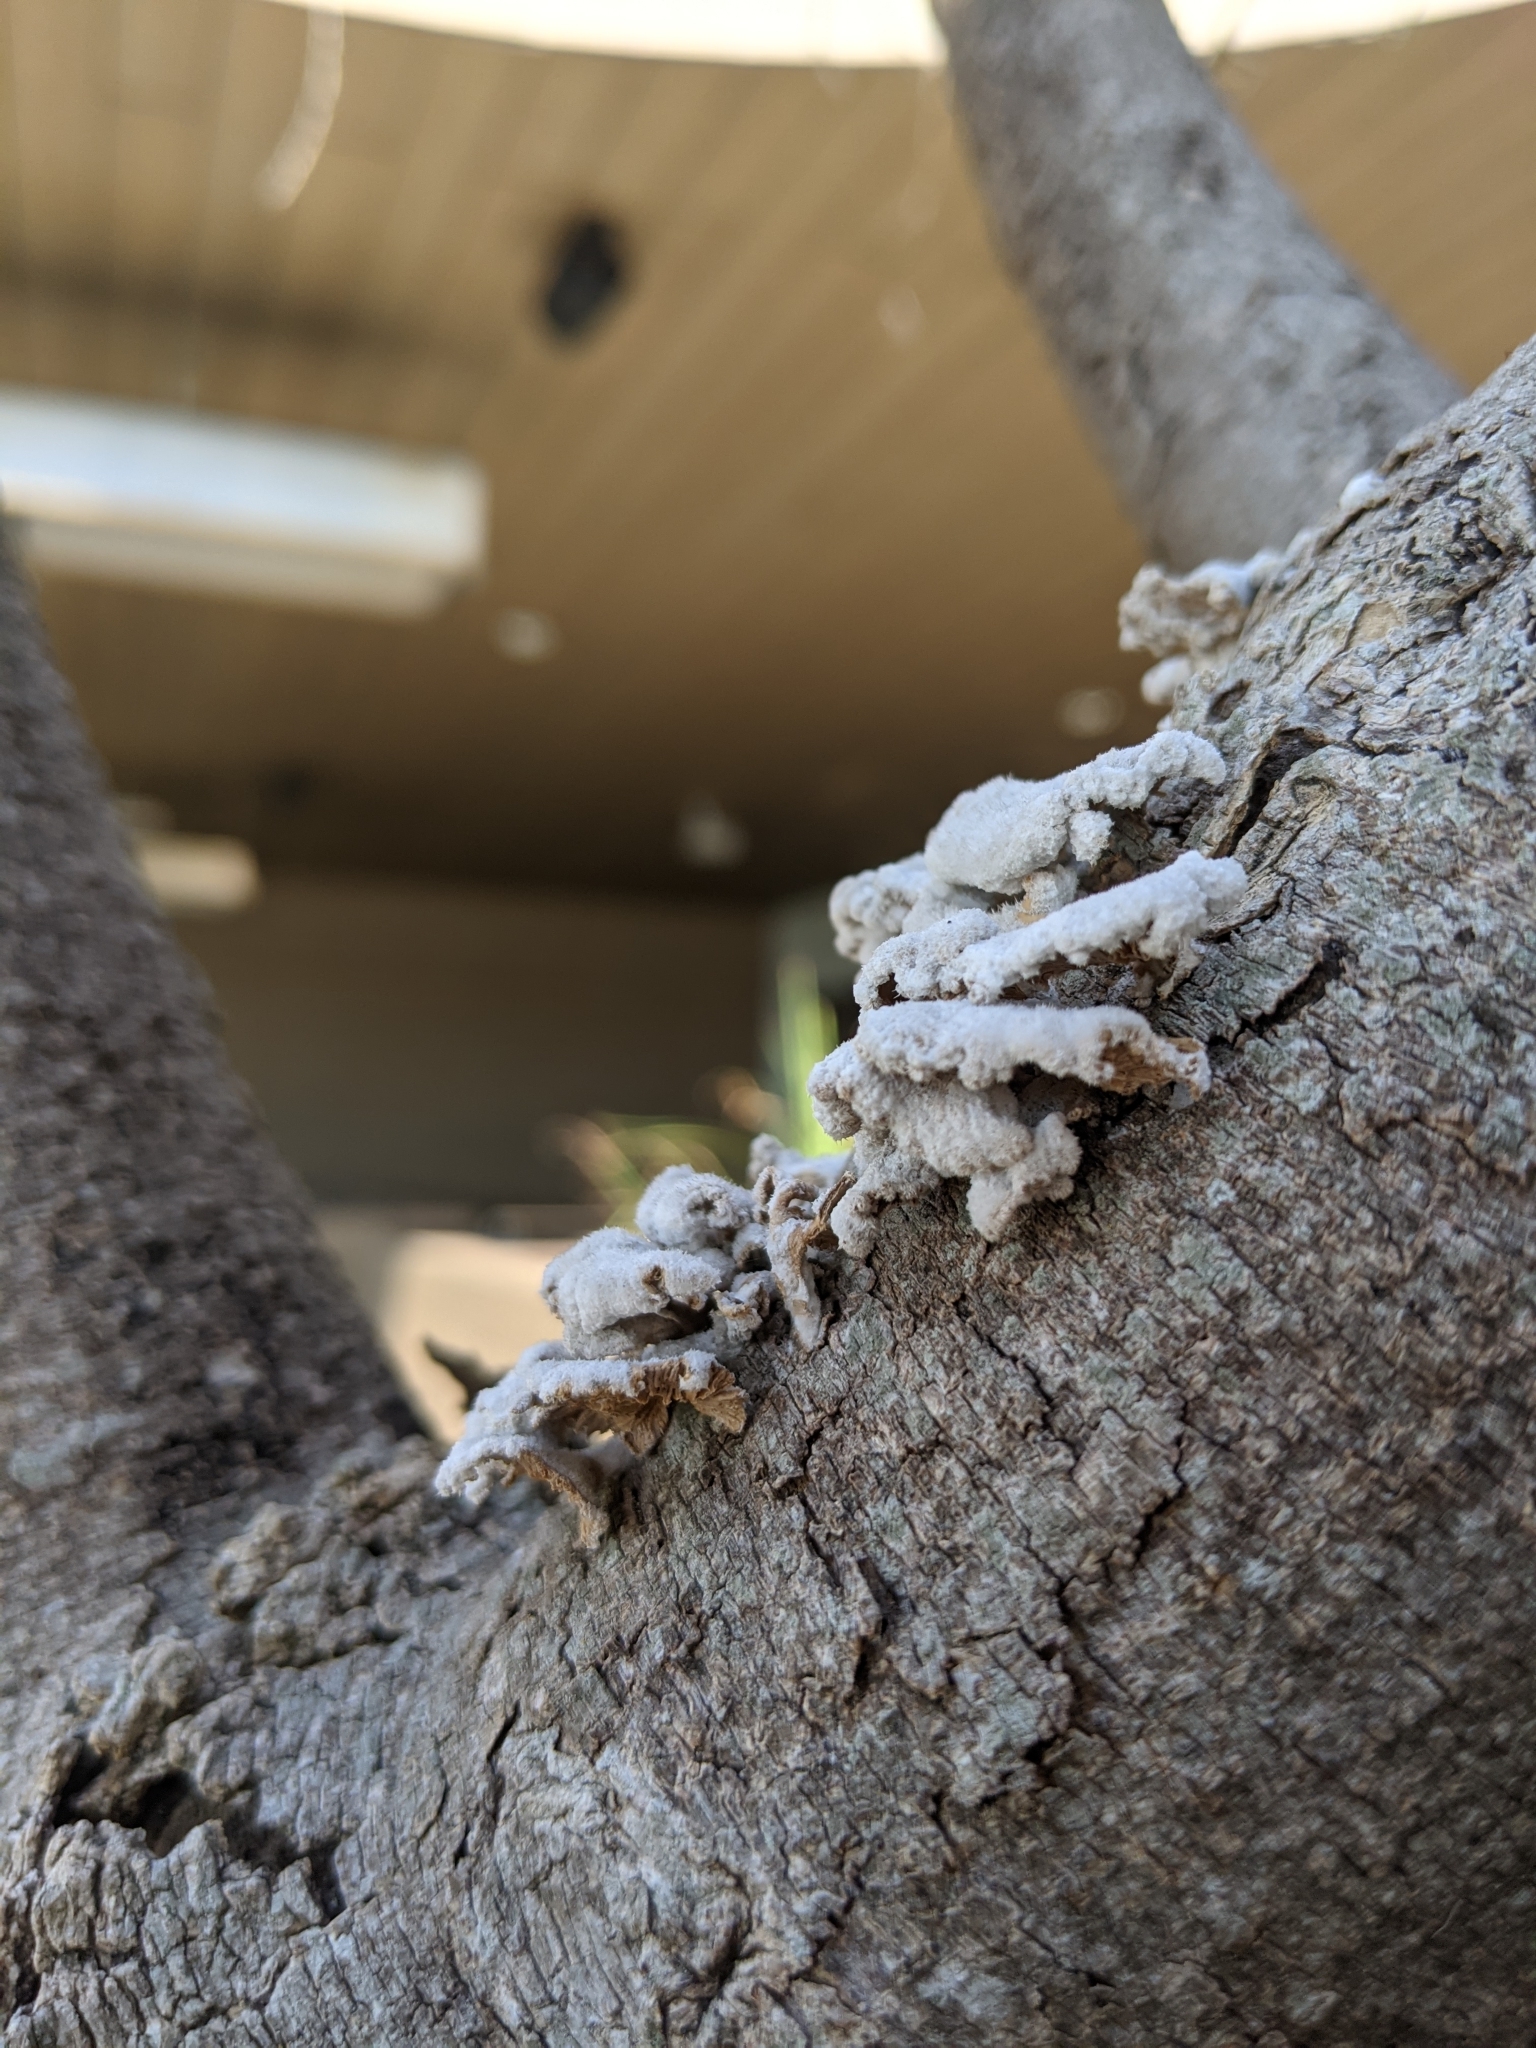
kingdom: Fungi
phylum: Basidiomycota
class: Agaricomycetes
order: Agaricales
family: Schizophyllaceae
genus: Schizophyllum
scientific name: Schizophyllum commune
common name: Common porecrust
